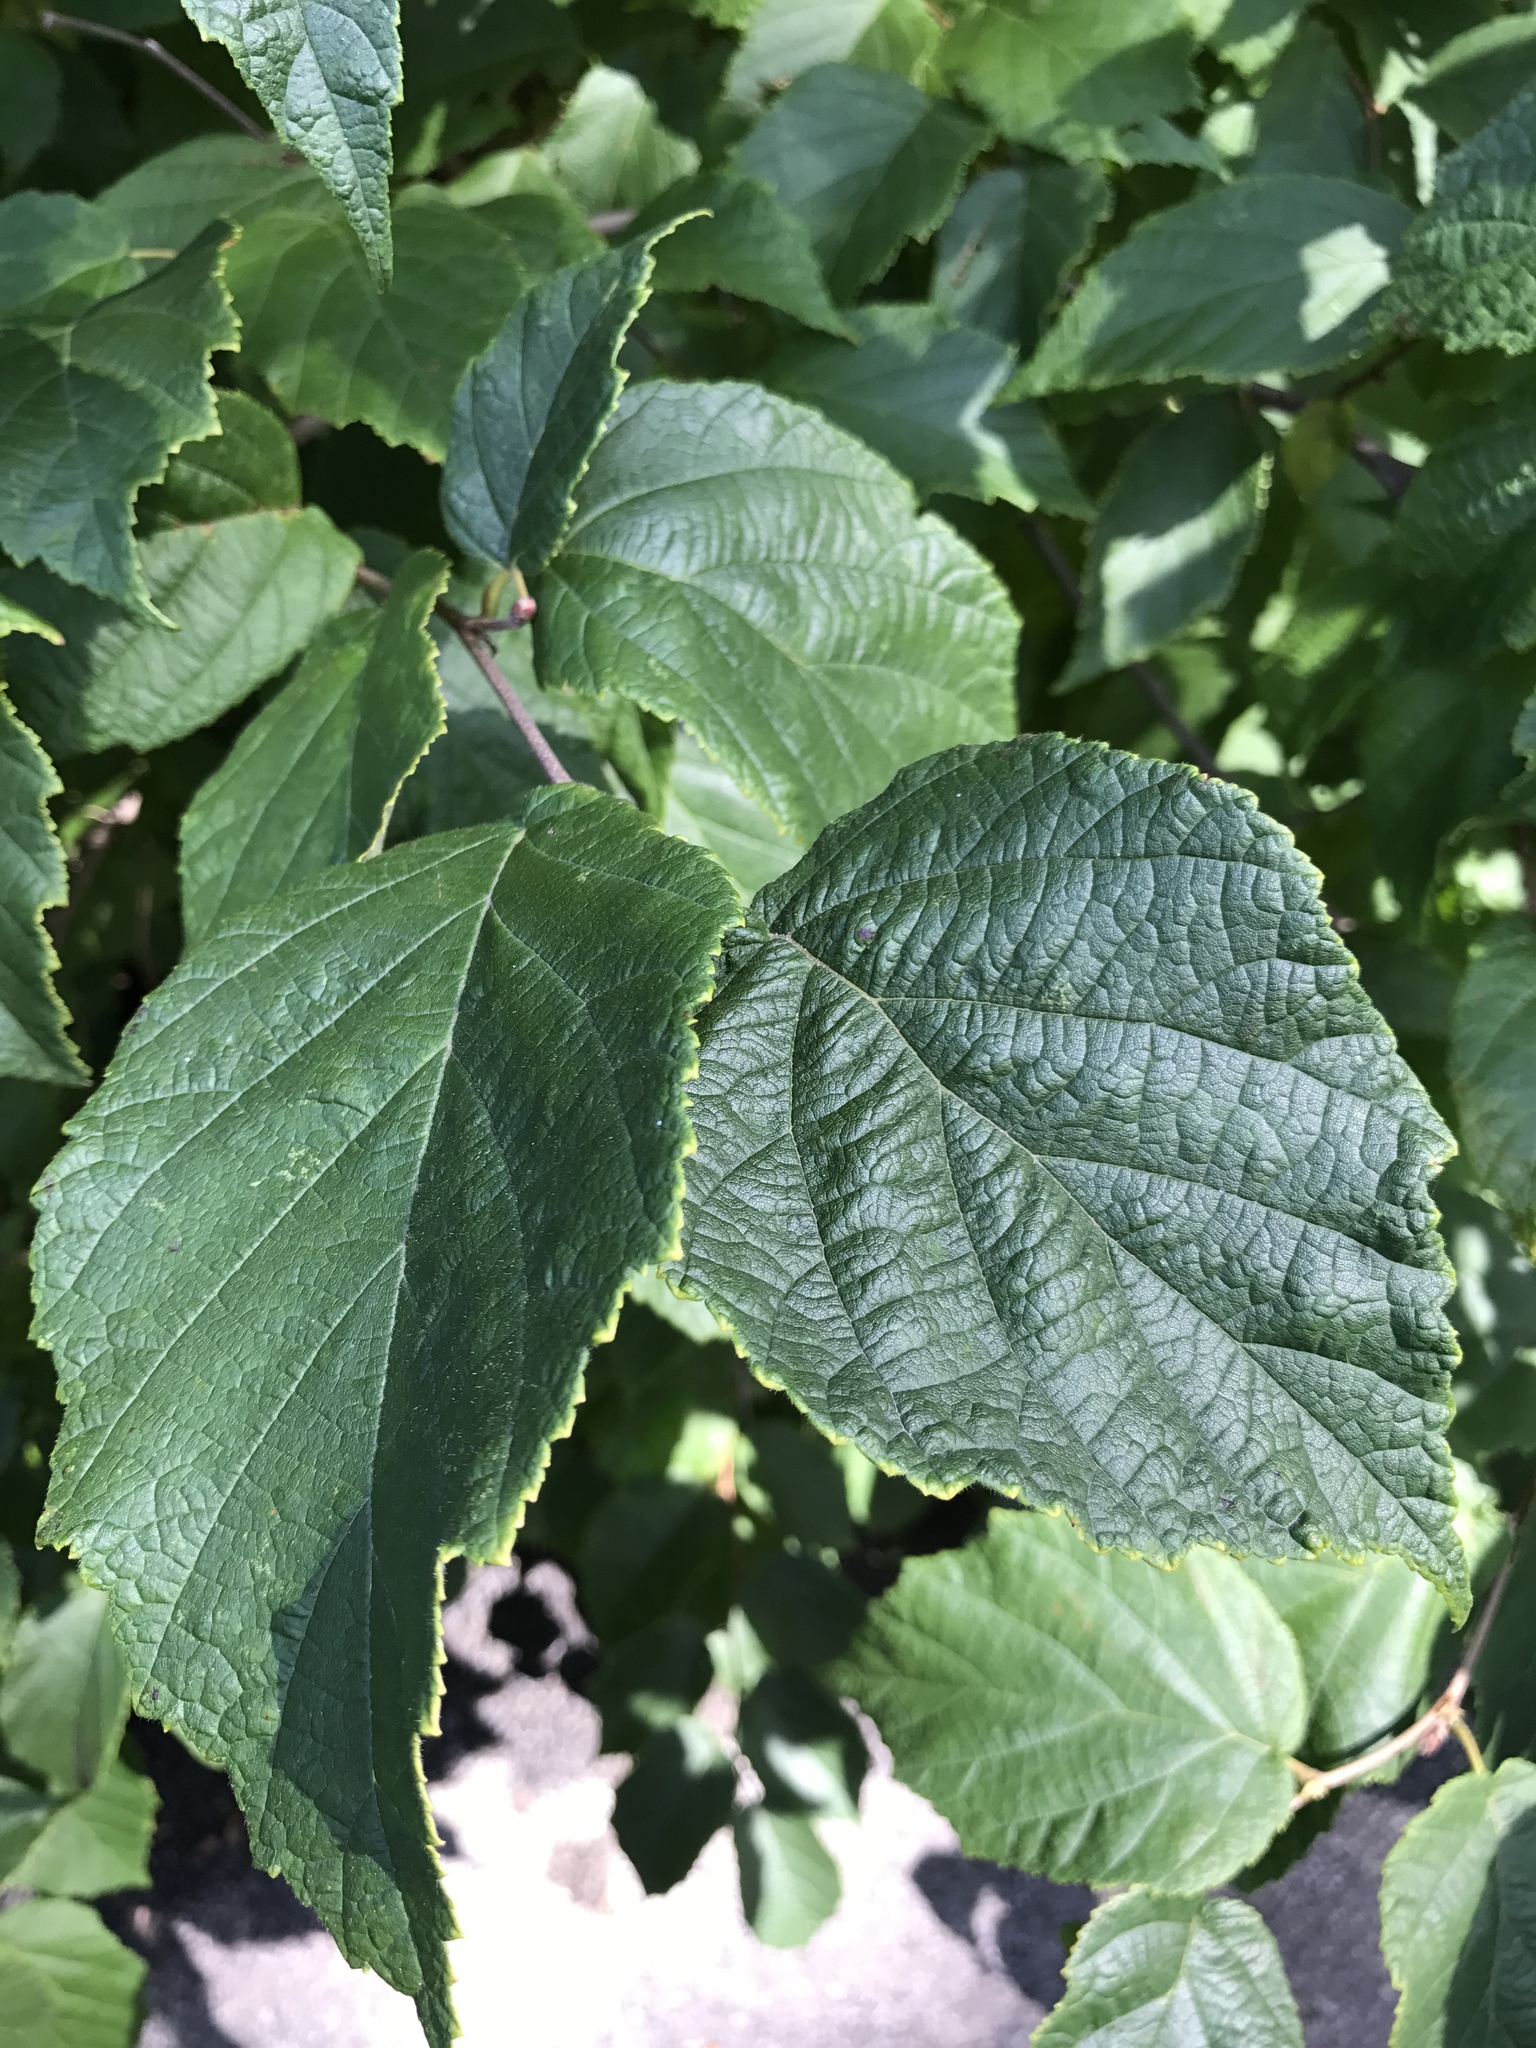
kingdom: Plantae
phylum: Tracheophyta
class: Magnoliopsida
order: Fagales
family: Betulaceae
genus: Corylus
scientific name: Corylus americana
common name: American hazel
